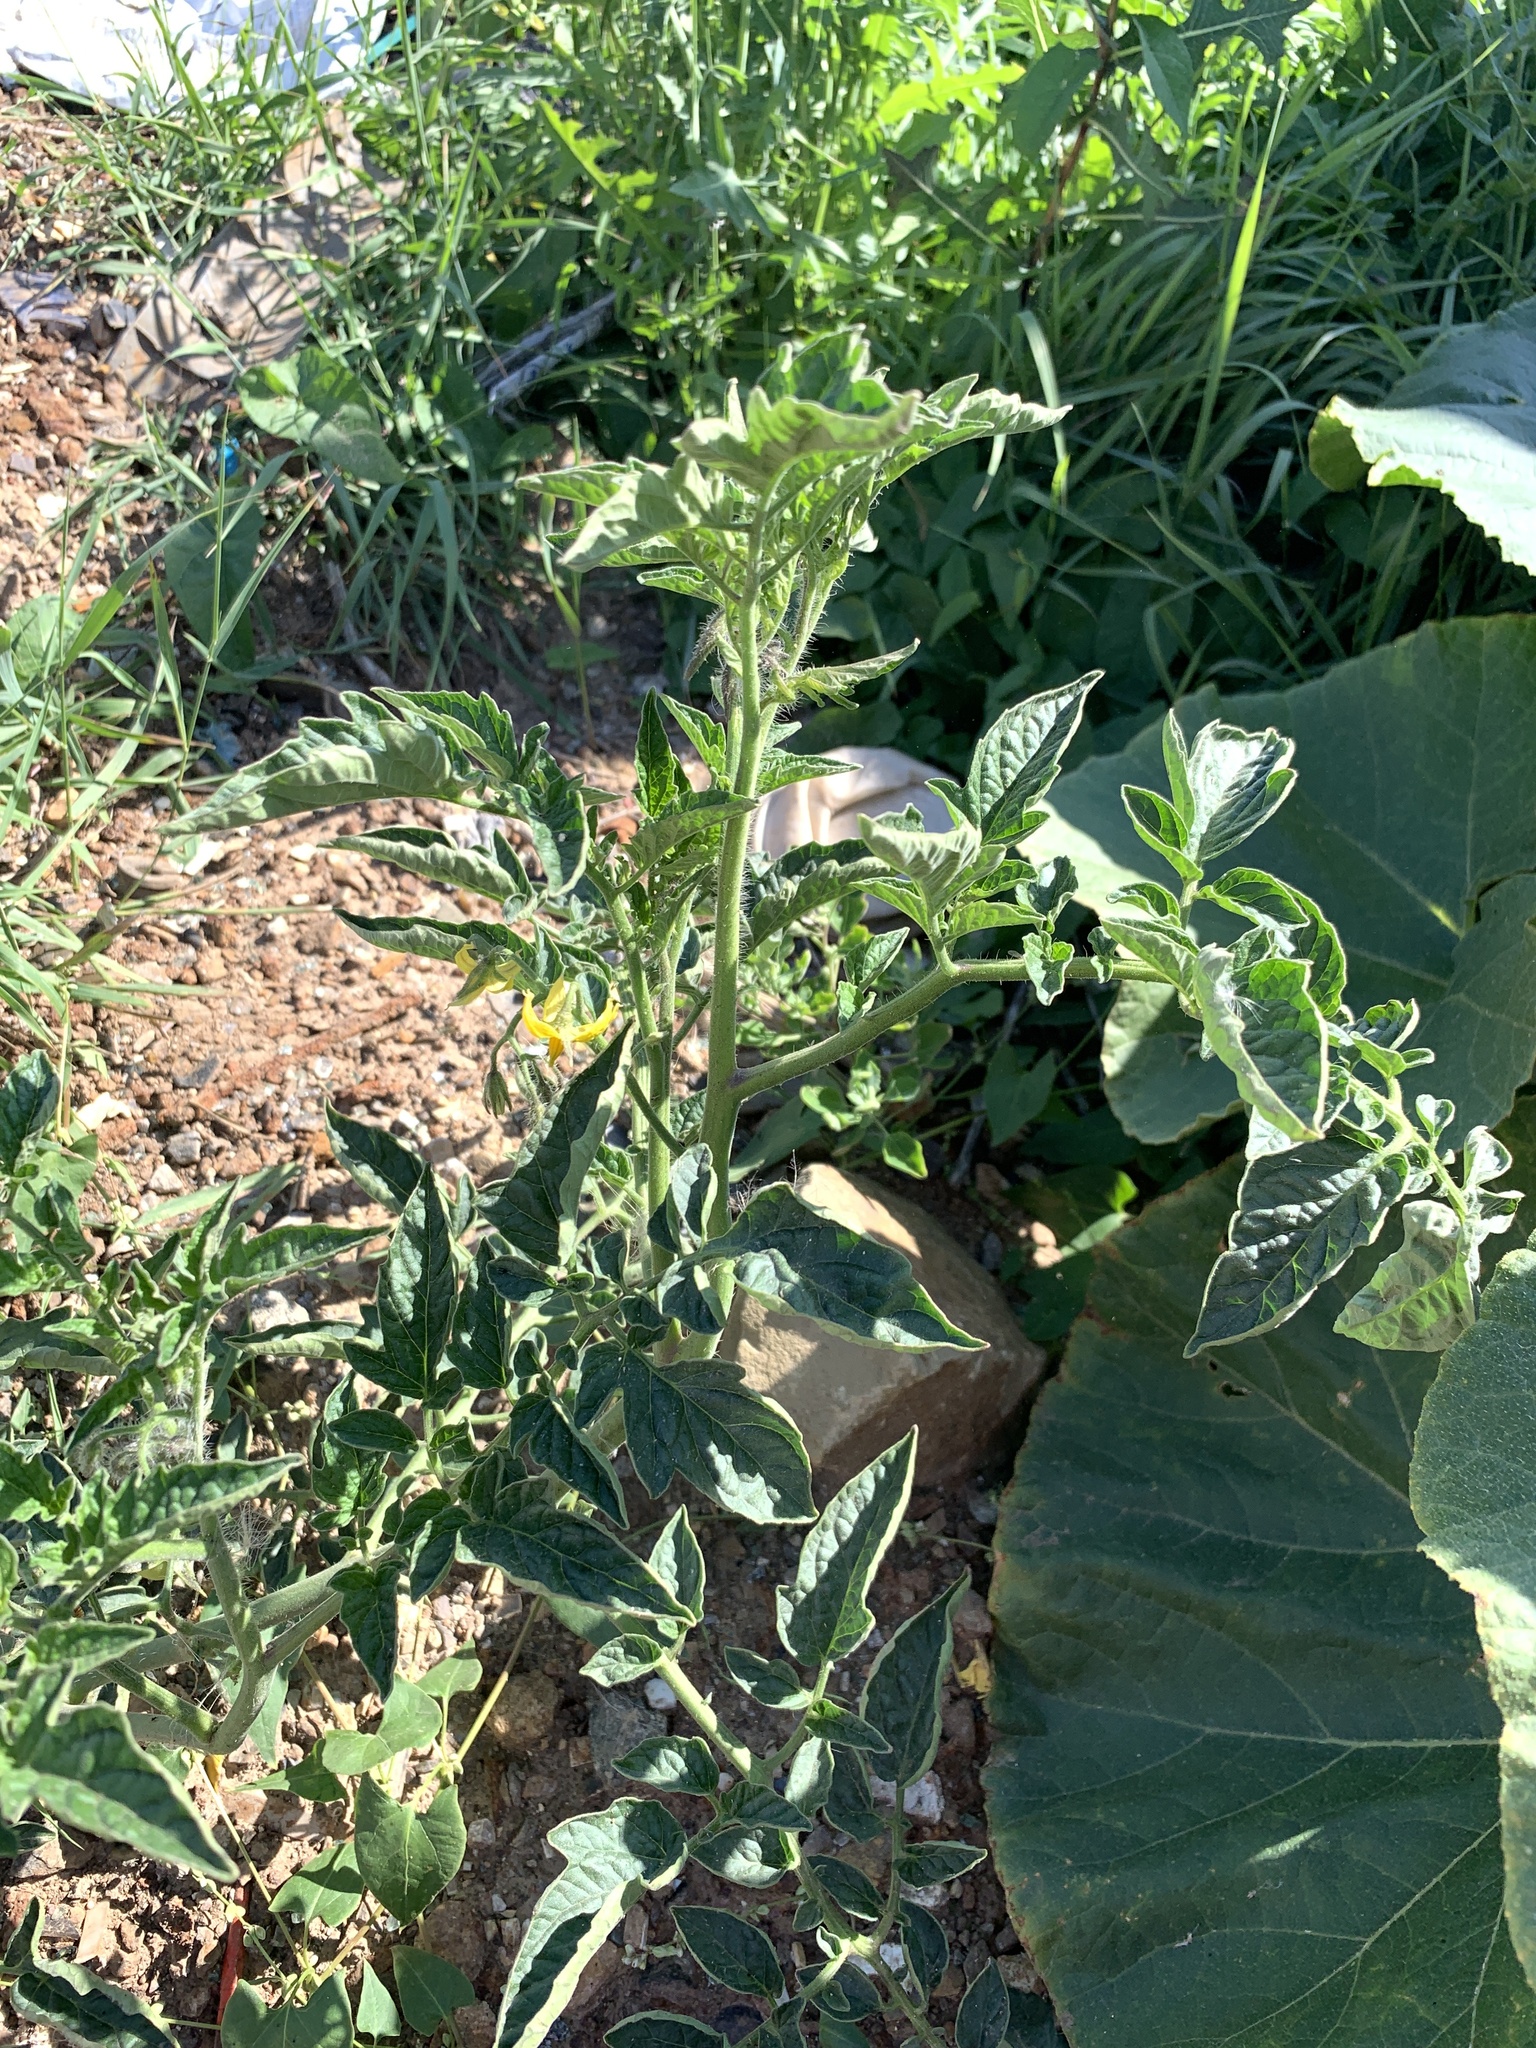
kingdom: Plantae
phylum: Tracheophyta
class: Magnoliopsida
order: Solanales
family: Solanaceae
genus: Solanum
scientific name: Solanum lycopersicum
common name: Garden tomato
